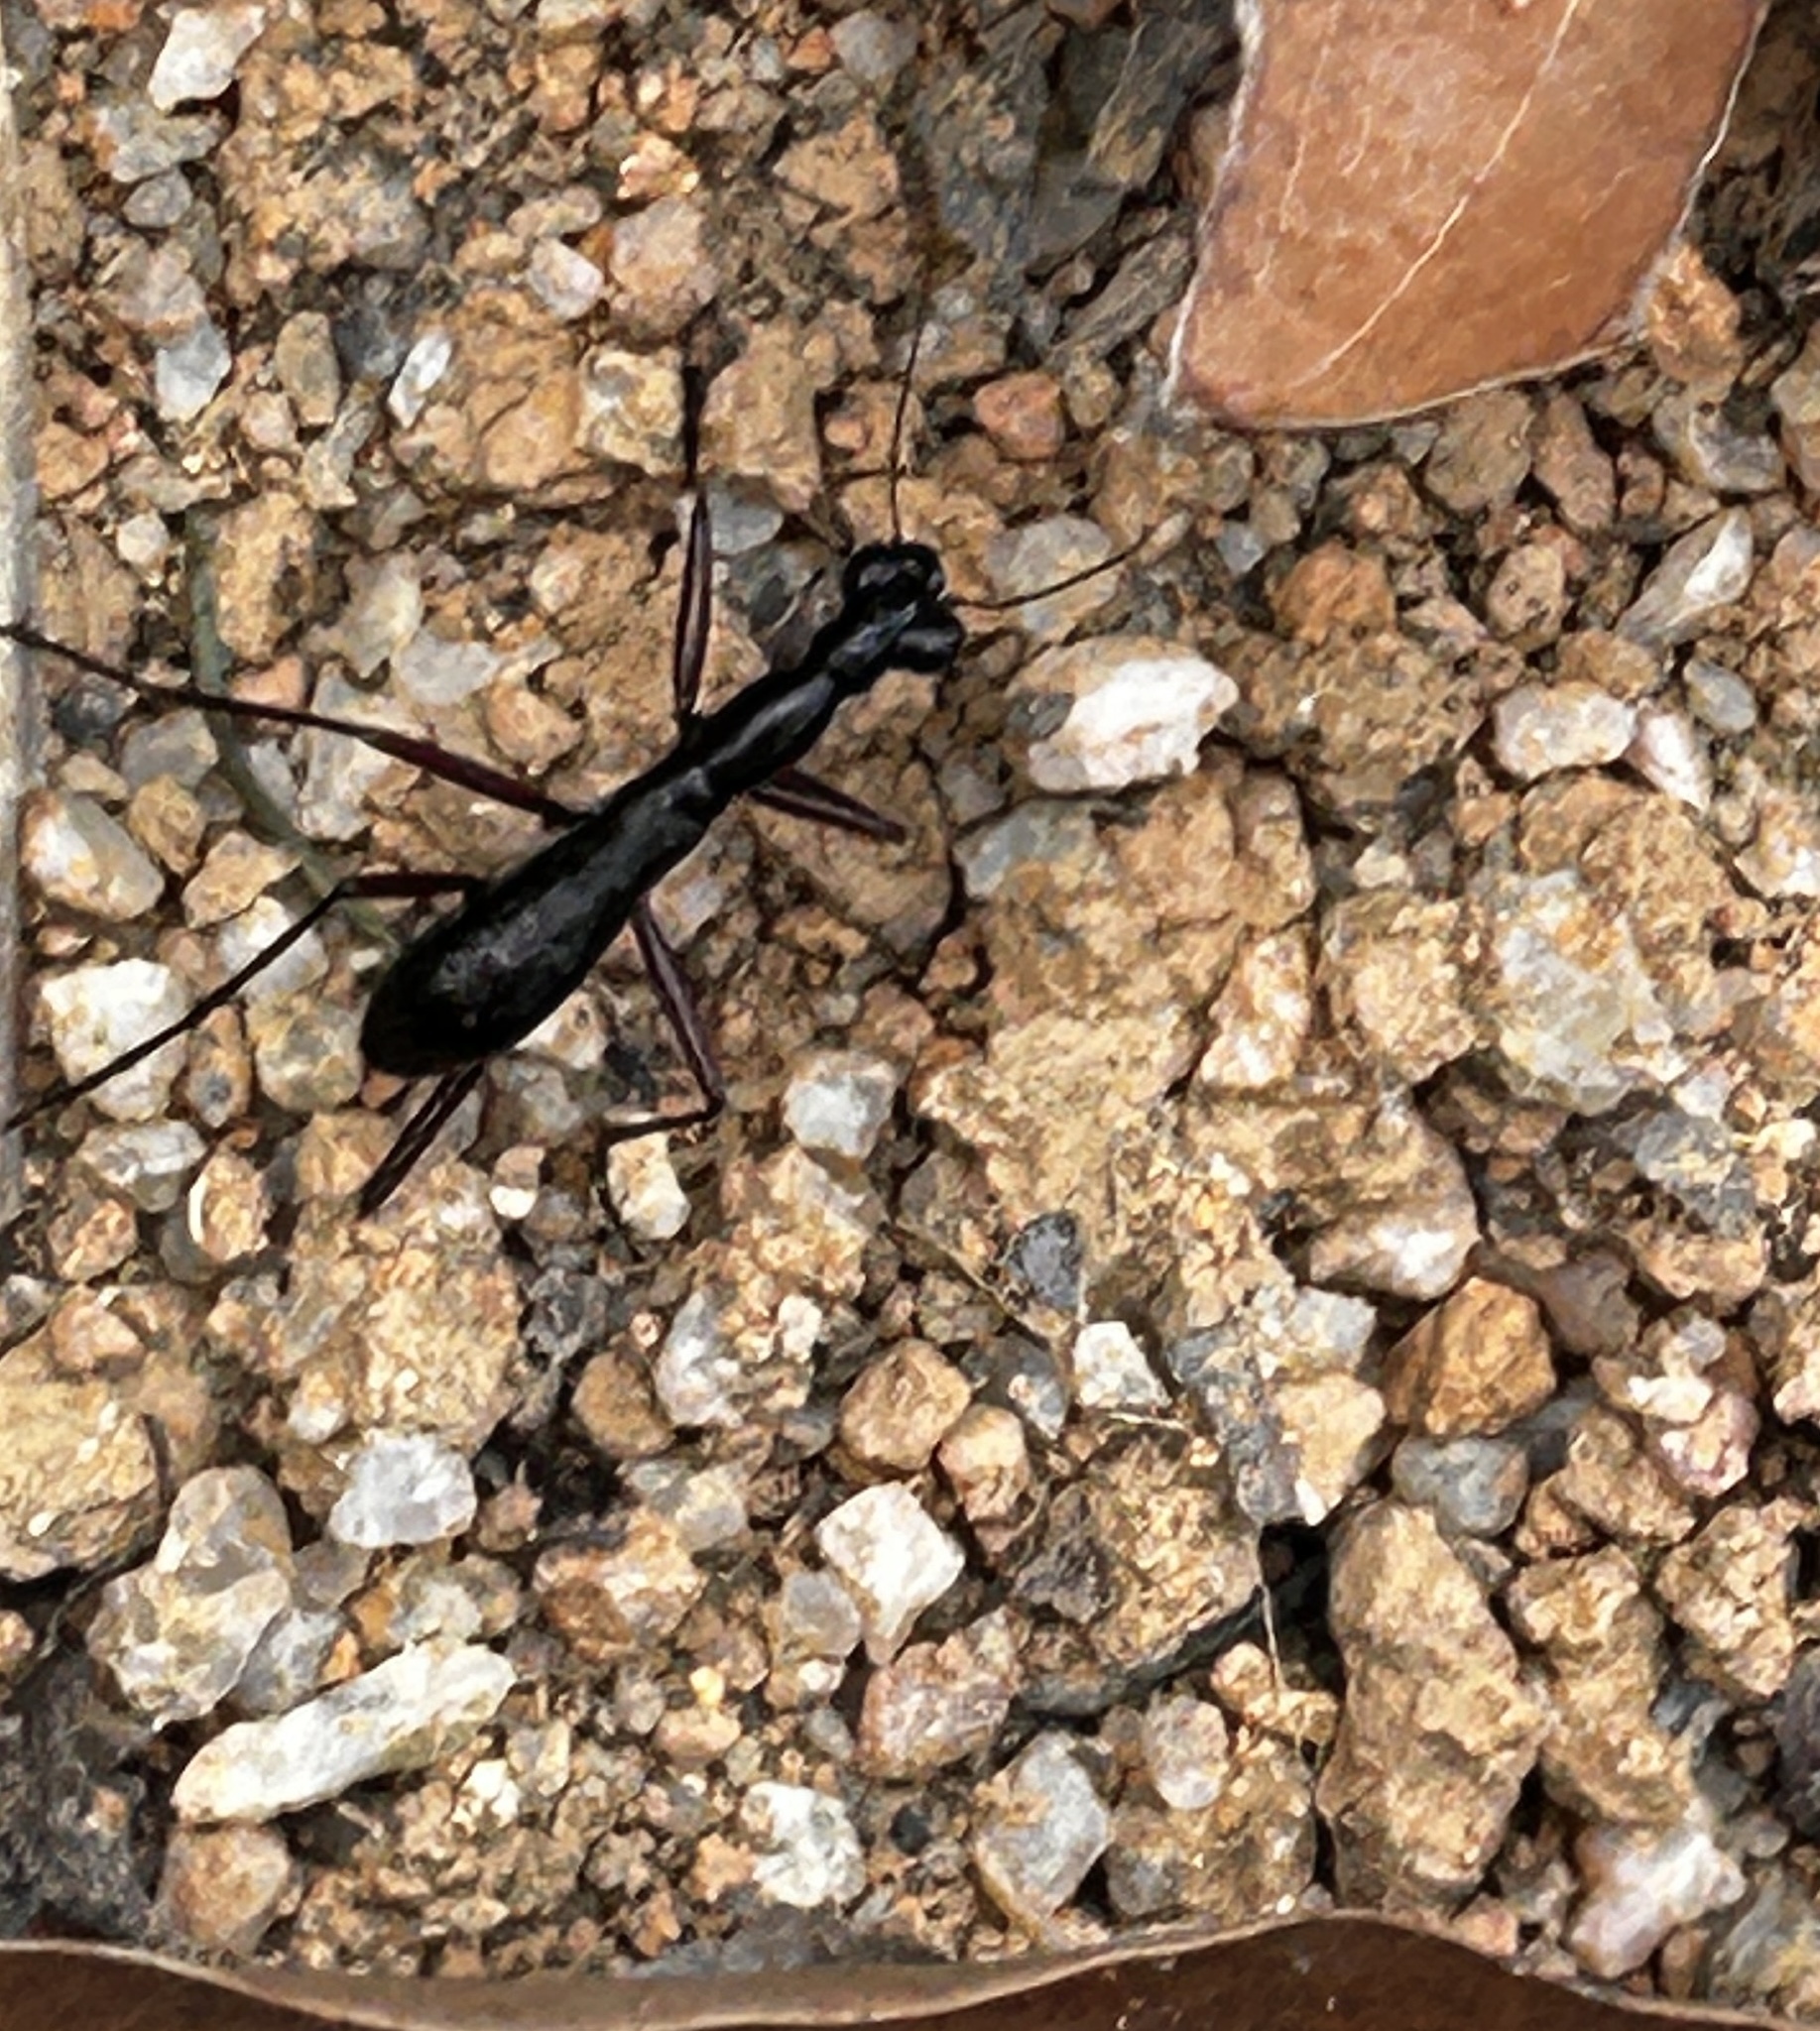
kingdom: Animalia
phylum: Arthropoda
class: Insecta
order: Coleoptera
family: Carabidae
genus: Tricondyla
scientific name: Tricondyla pulchripes
